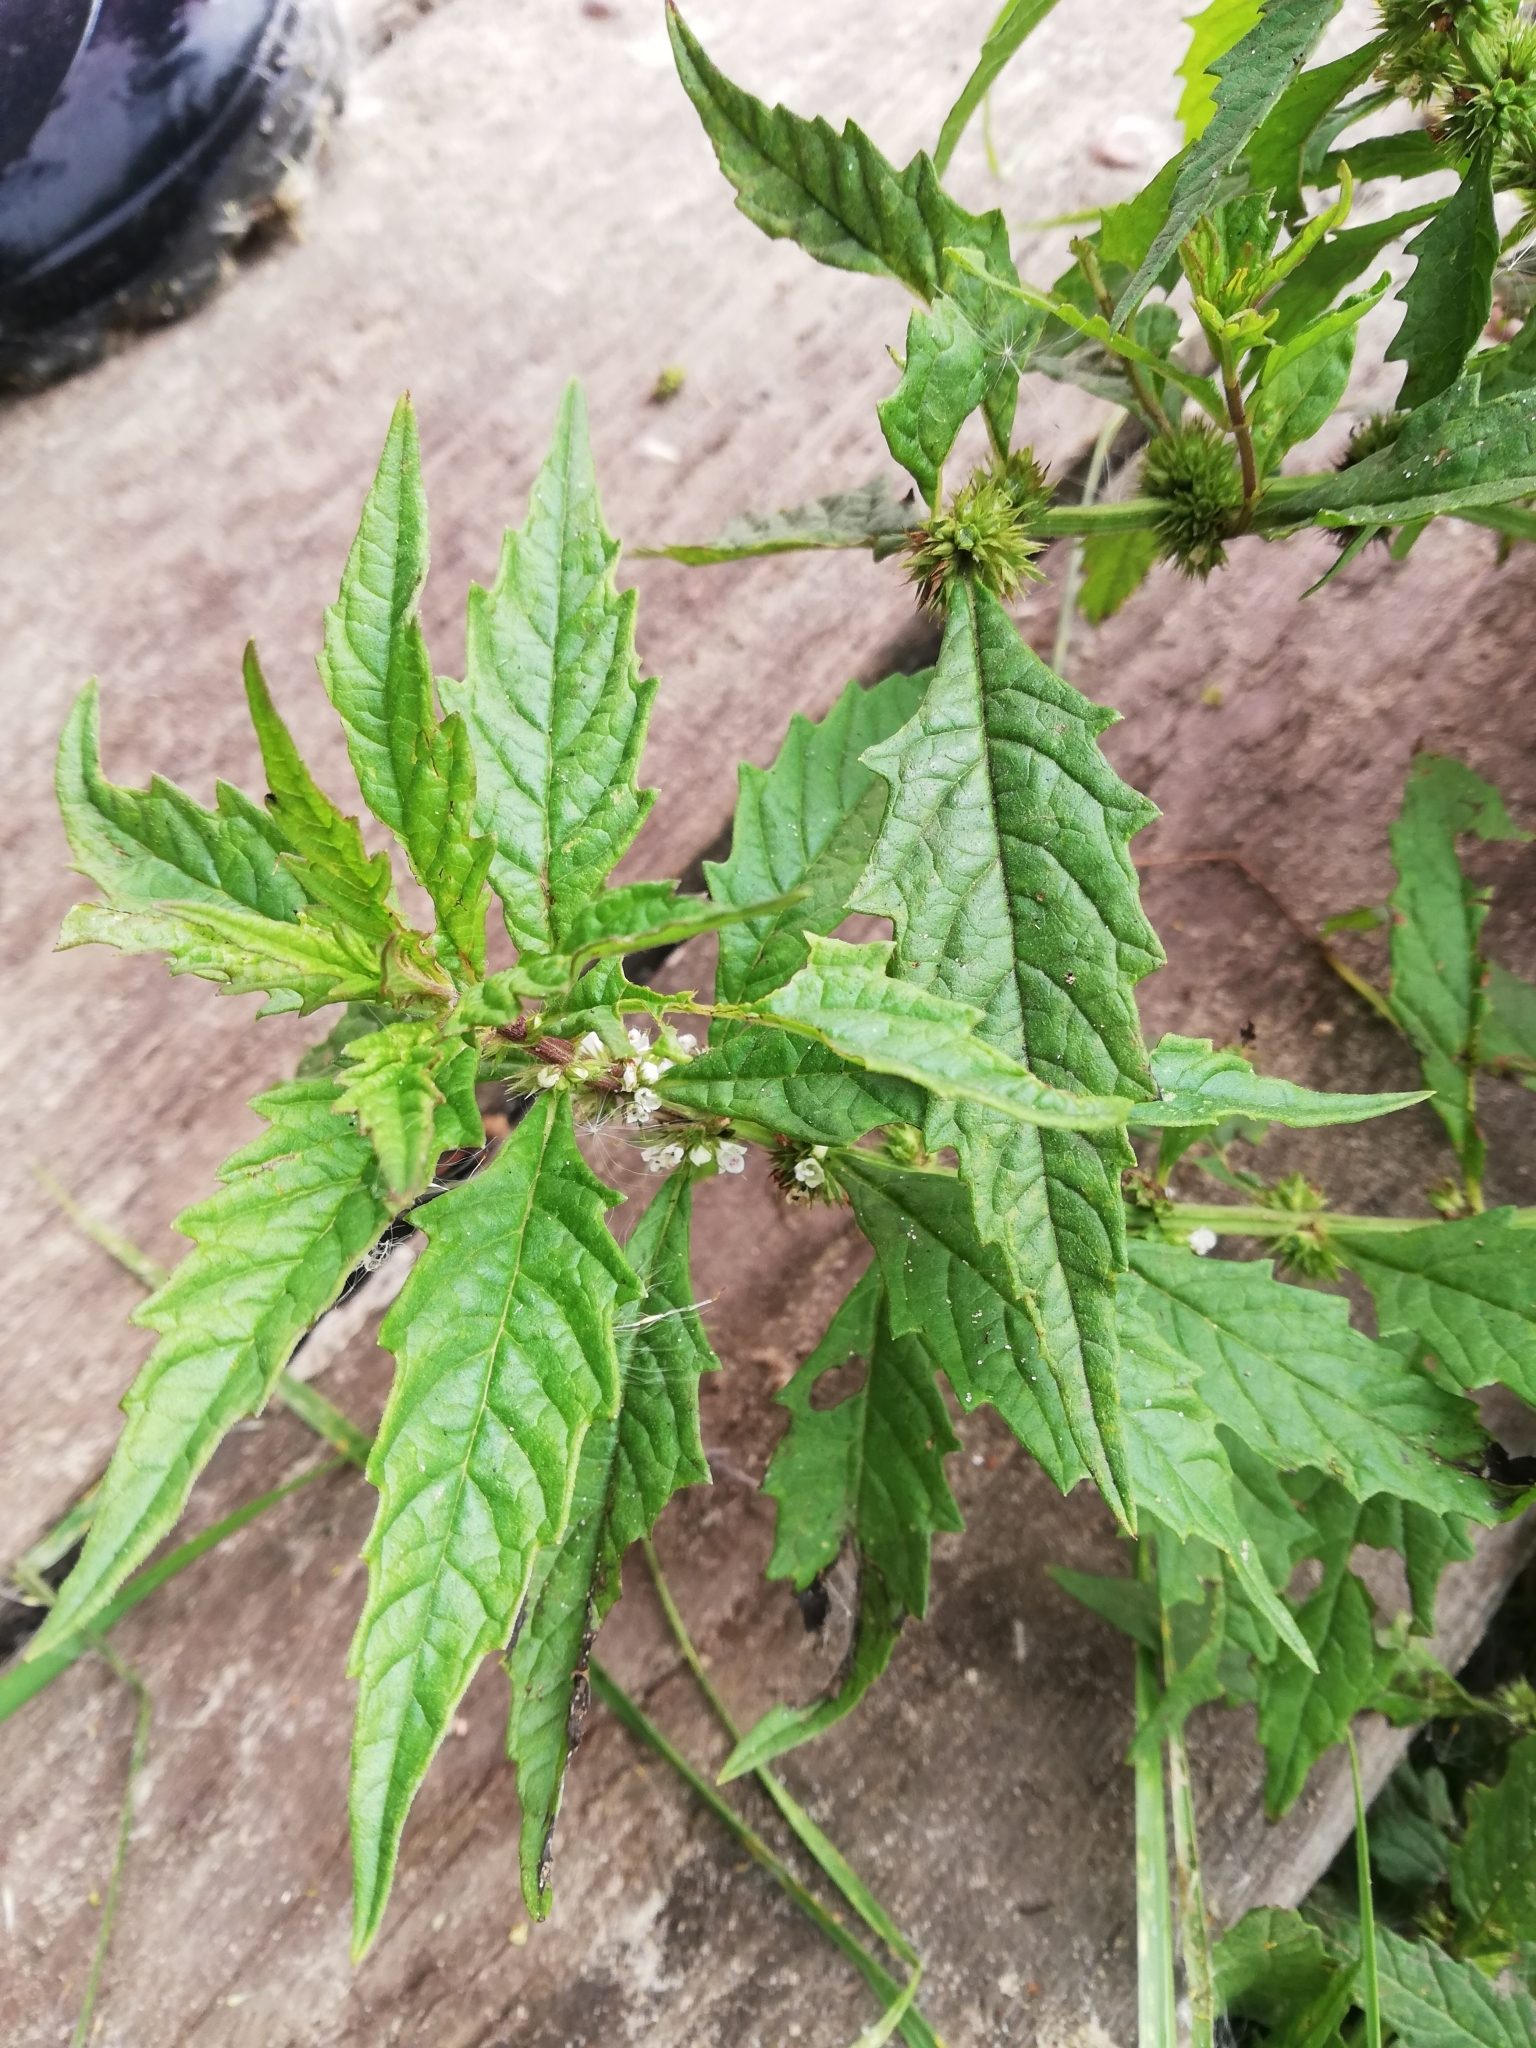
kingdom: Plantae
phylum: Tracheophyta
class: Magnoliopsida
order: Lamiales
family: Lamiaceae
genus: Lycopus
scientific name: Lycopus europaeus
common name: European bugleweed
